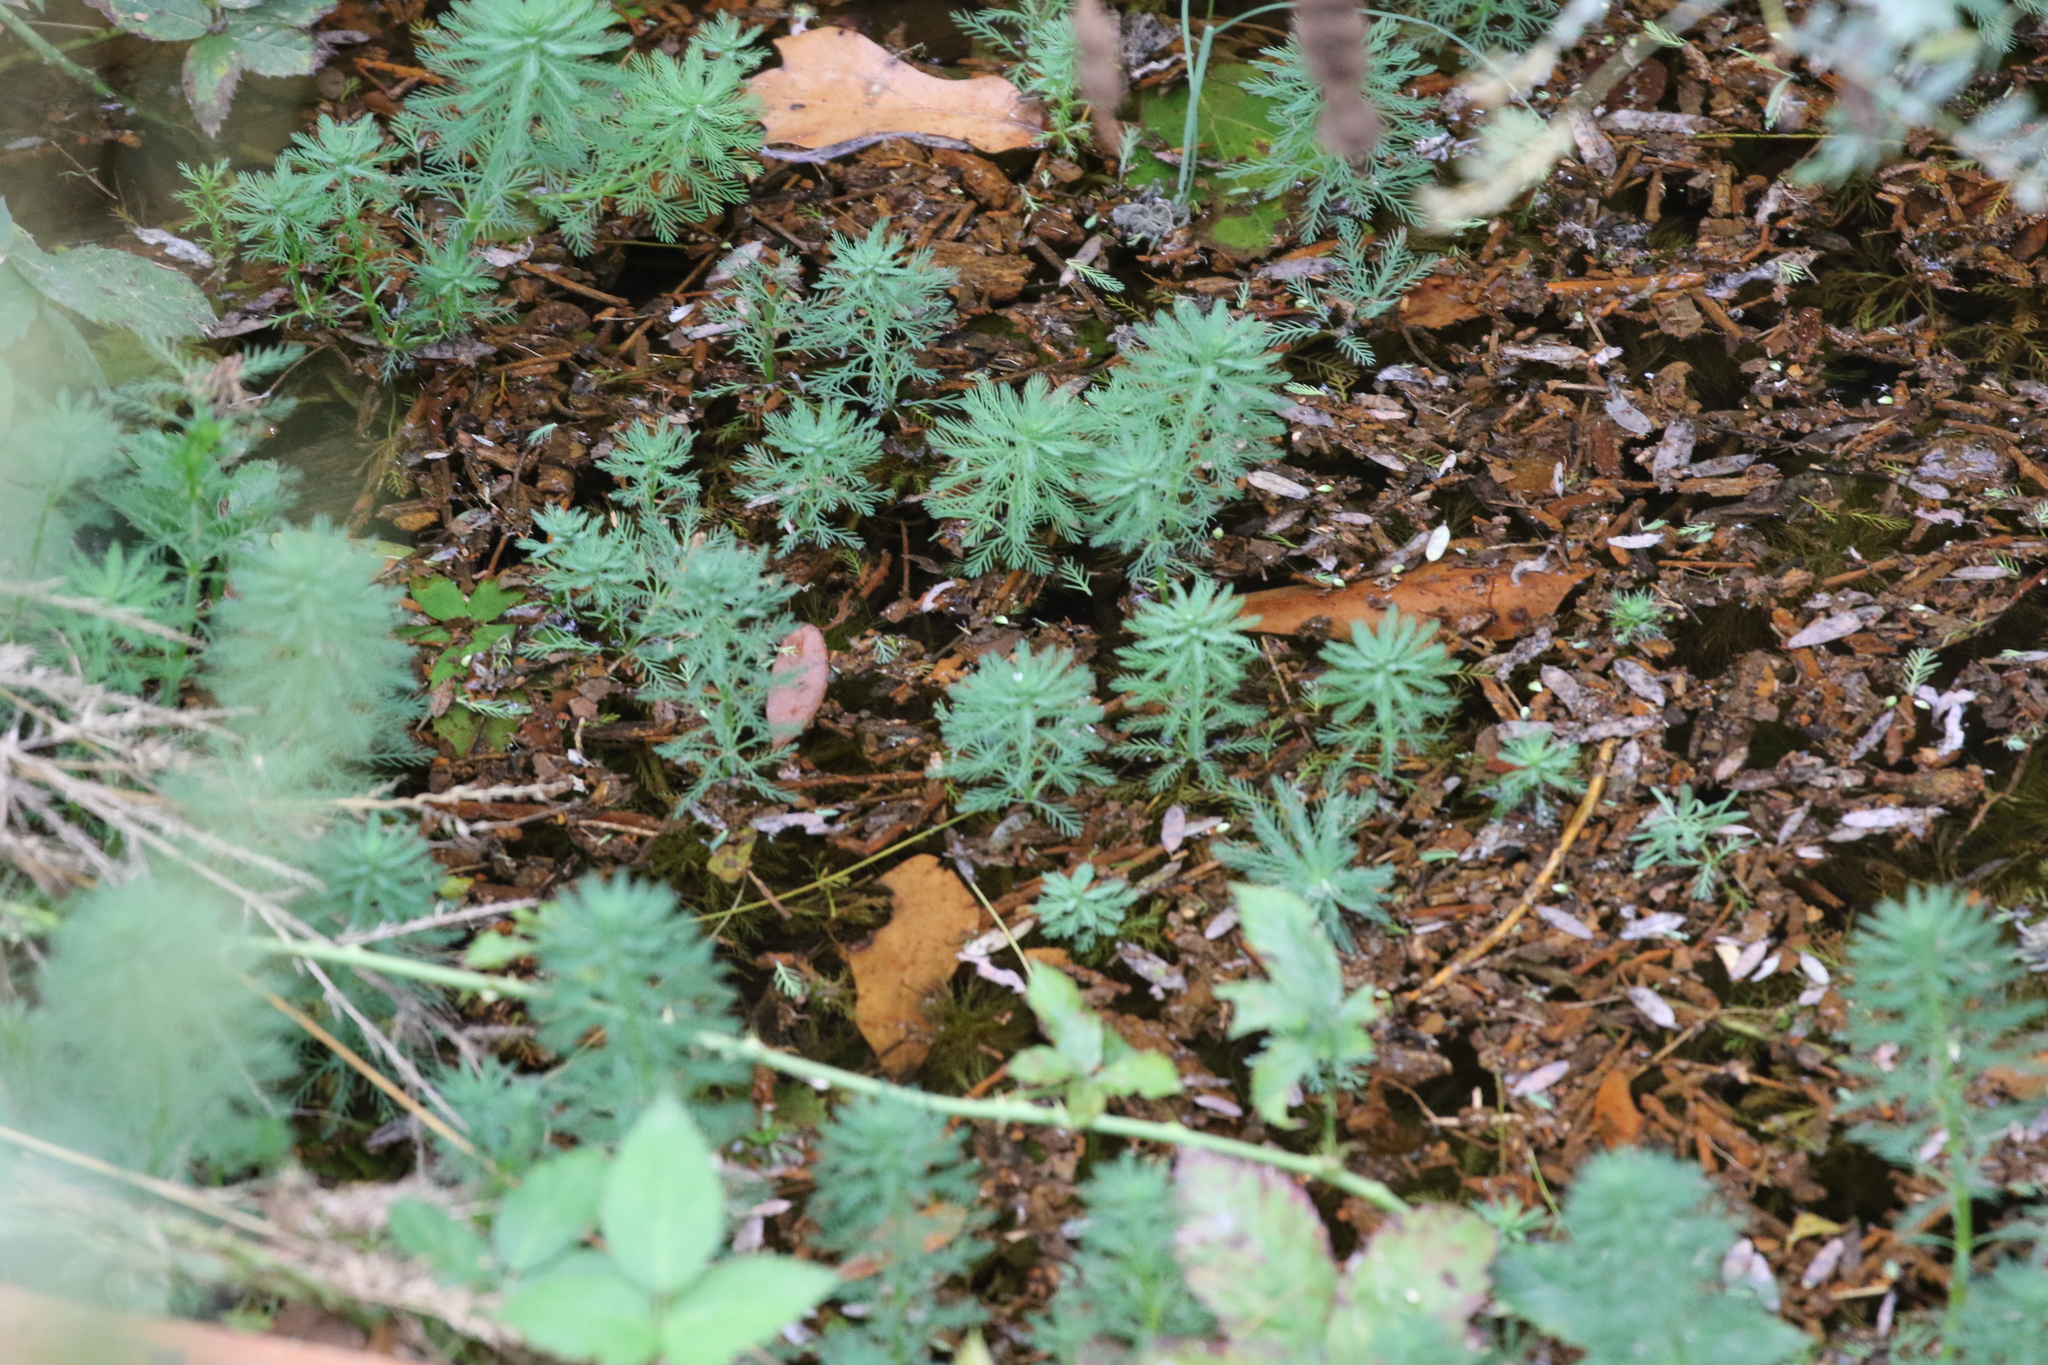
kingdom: Plantae
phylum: Tracheophyta
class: Magnoliopsida
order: Saxifragales
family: Haloragaceae
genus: Myriophyllum
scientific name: Myriophyllum aquaticum
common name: Parrot's feather
